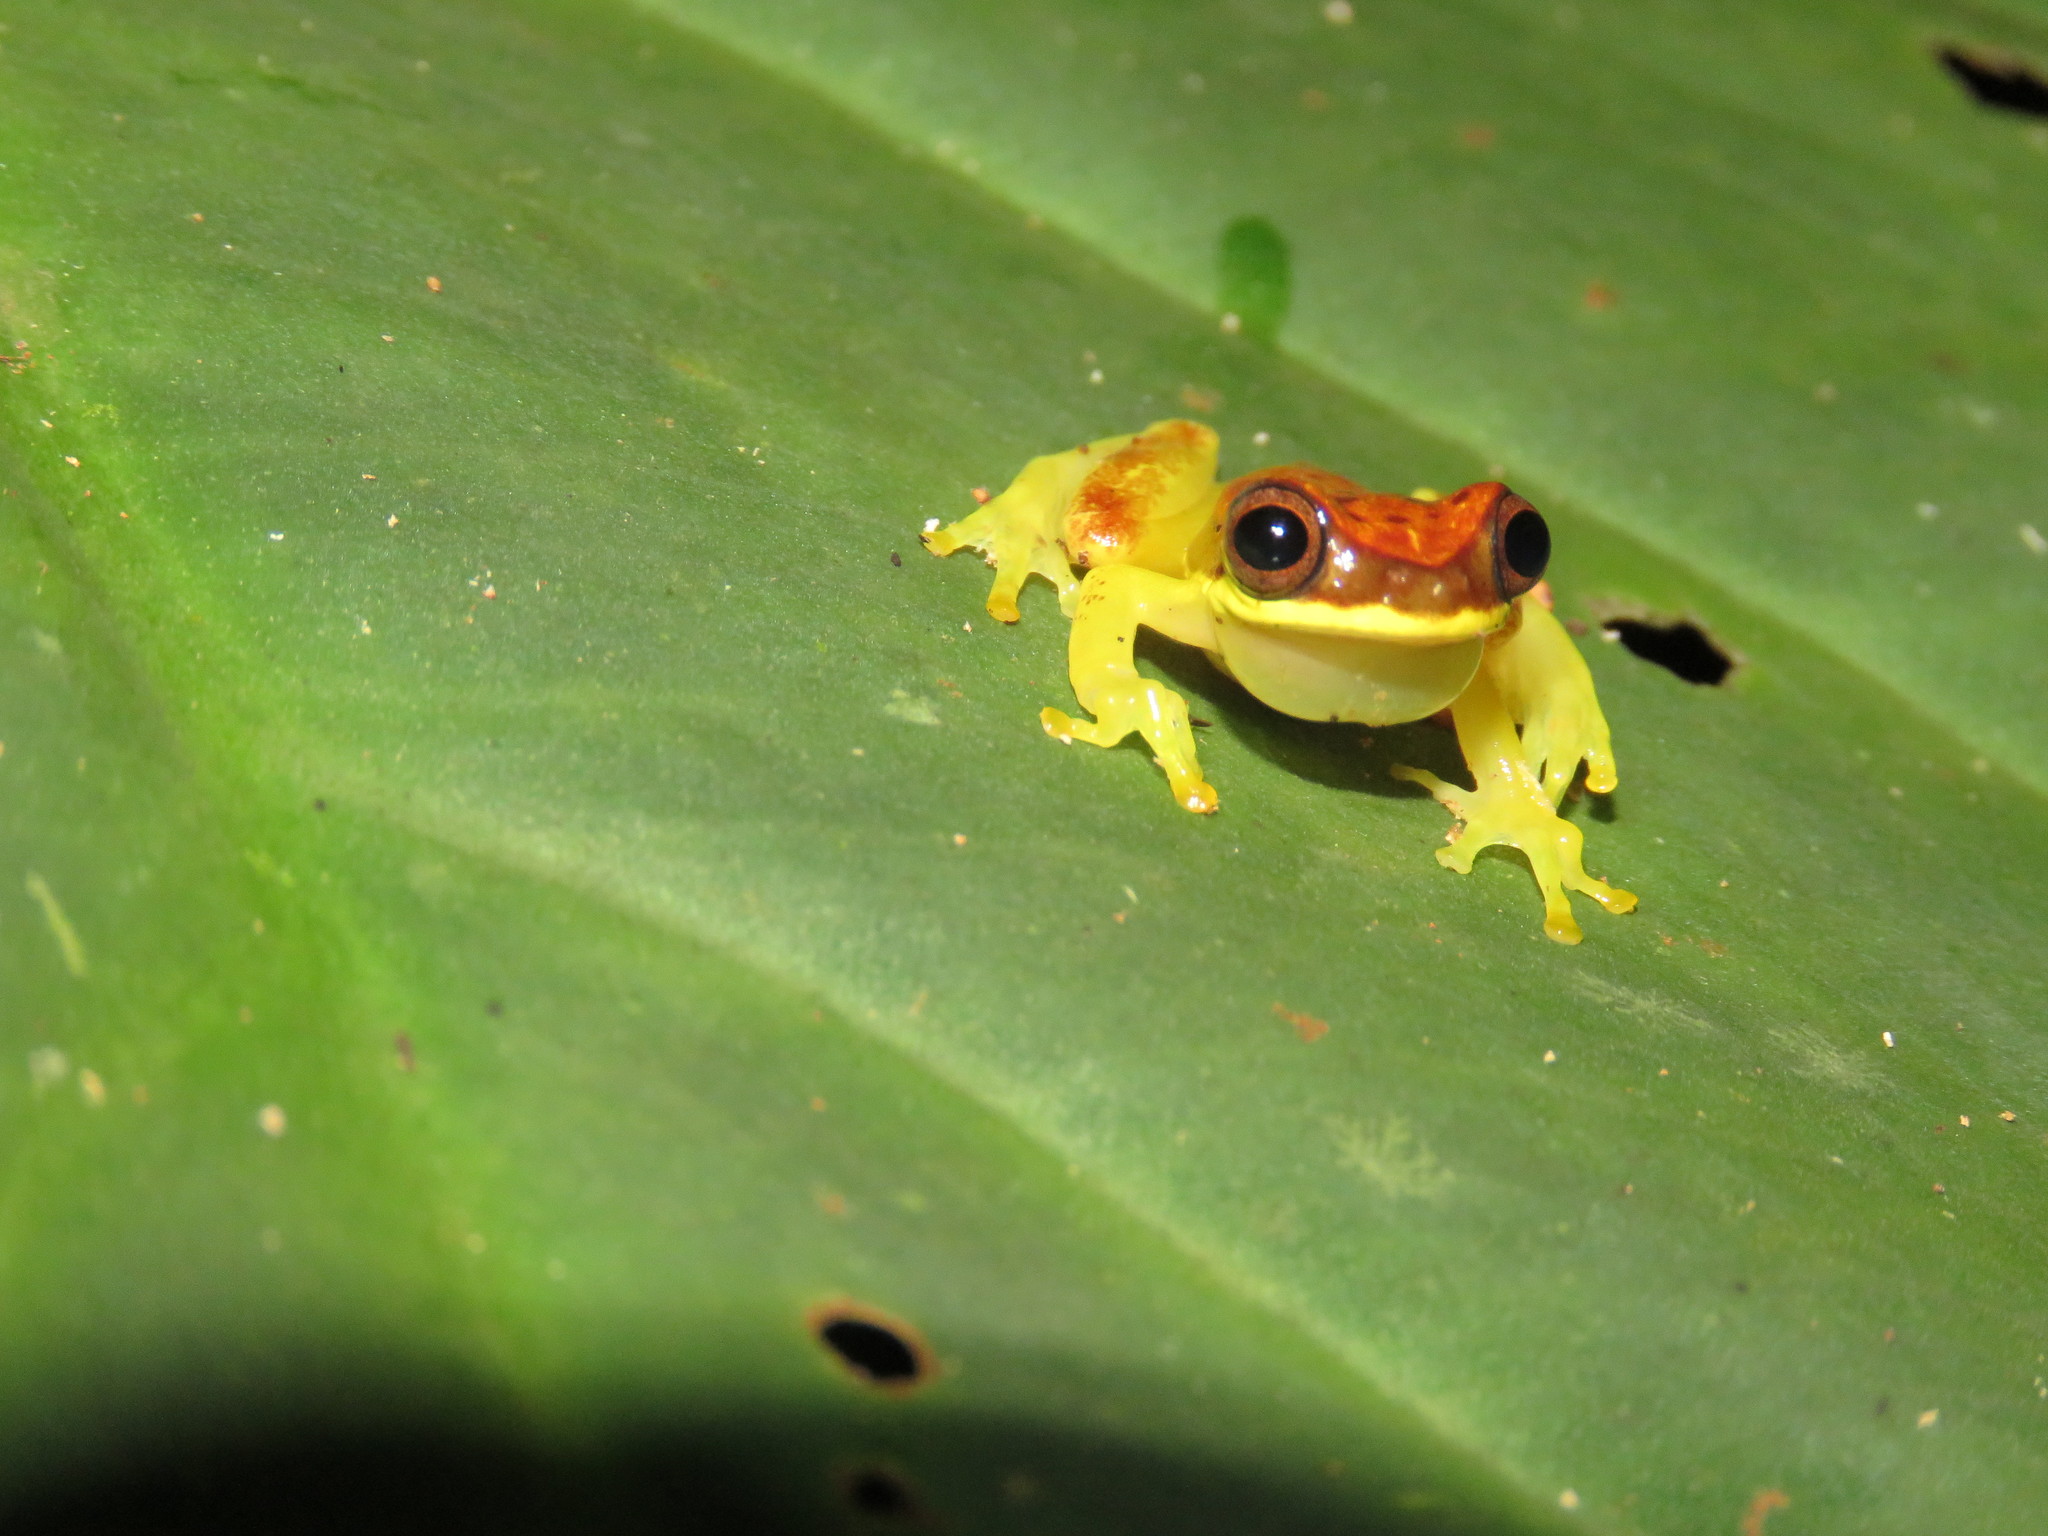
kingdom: Animalia
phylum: Chordata
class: Amphibia
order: Anura
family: Hylidae
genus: Dendropsophus
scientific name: Dendropsophus rhodopeplus
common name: Red-skirted treefrog
